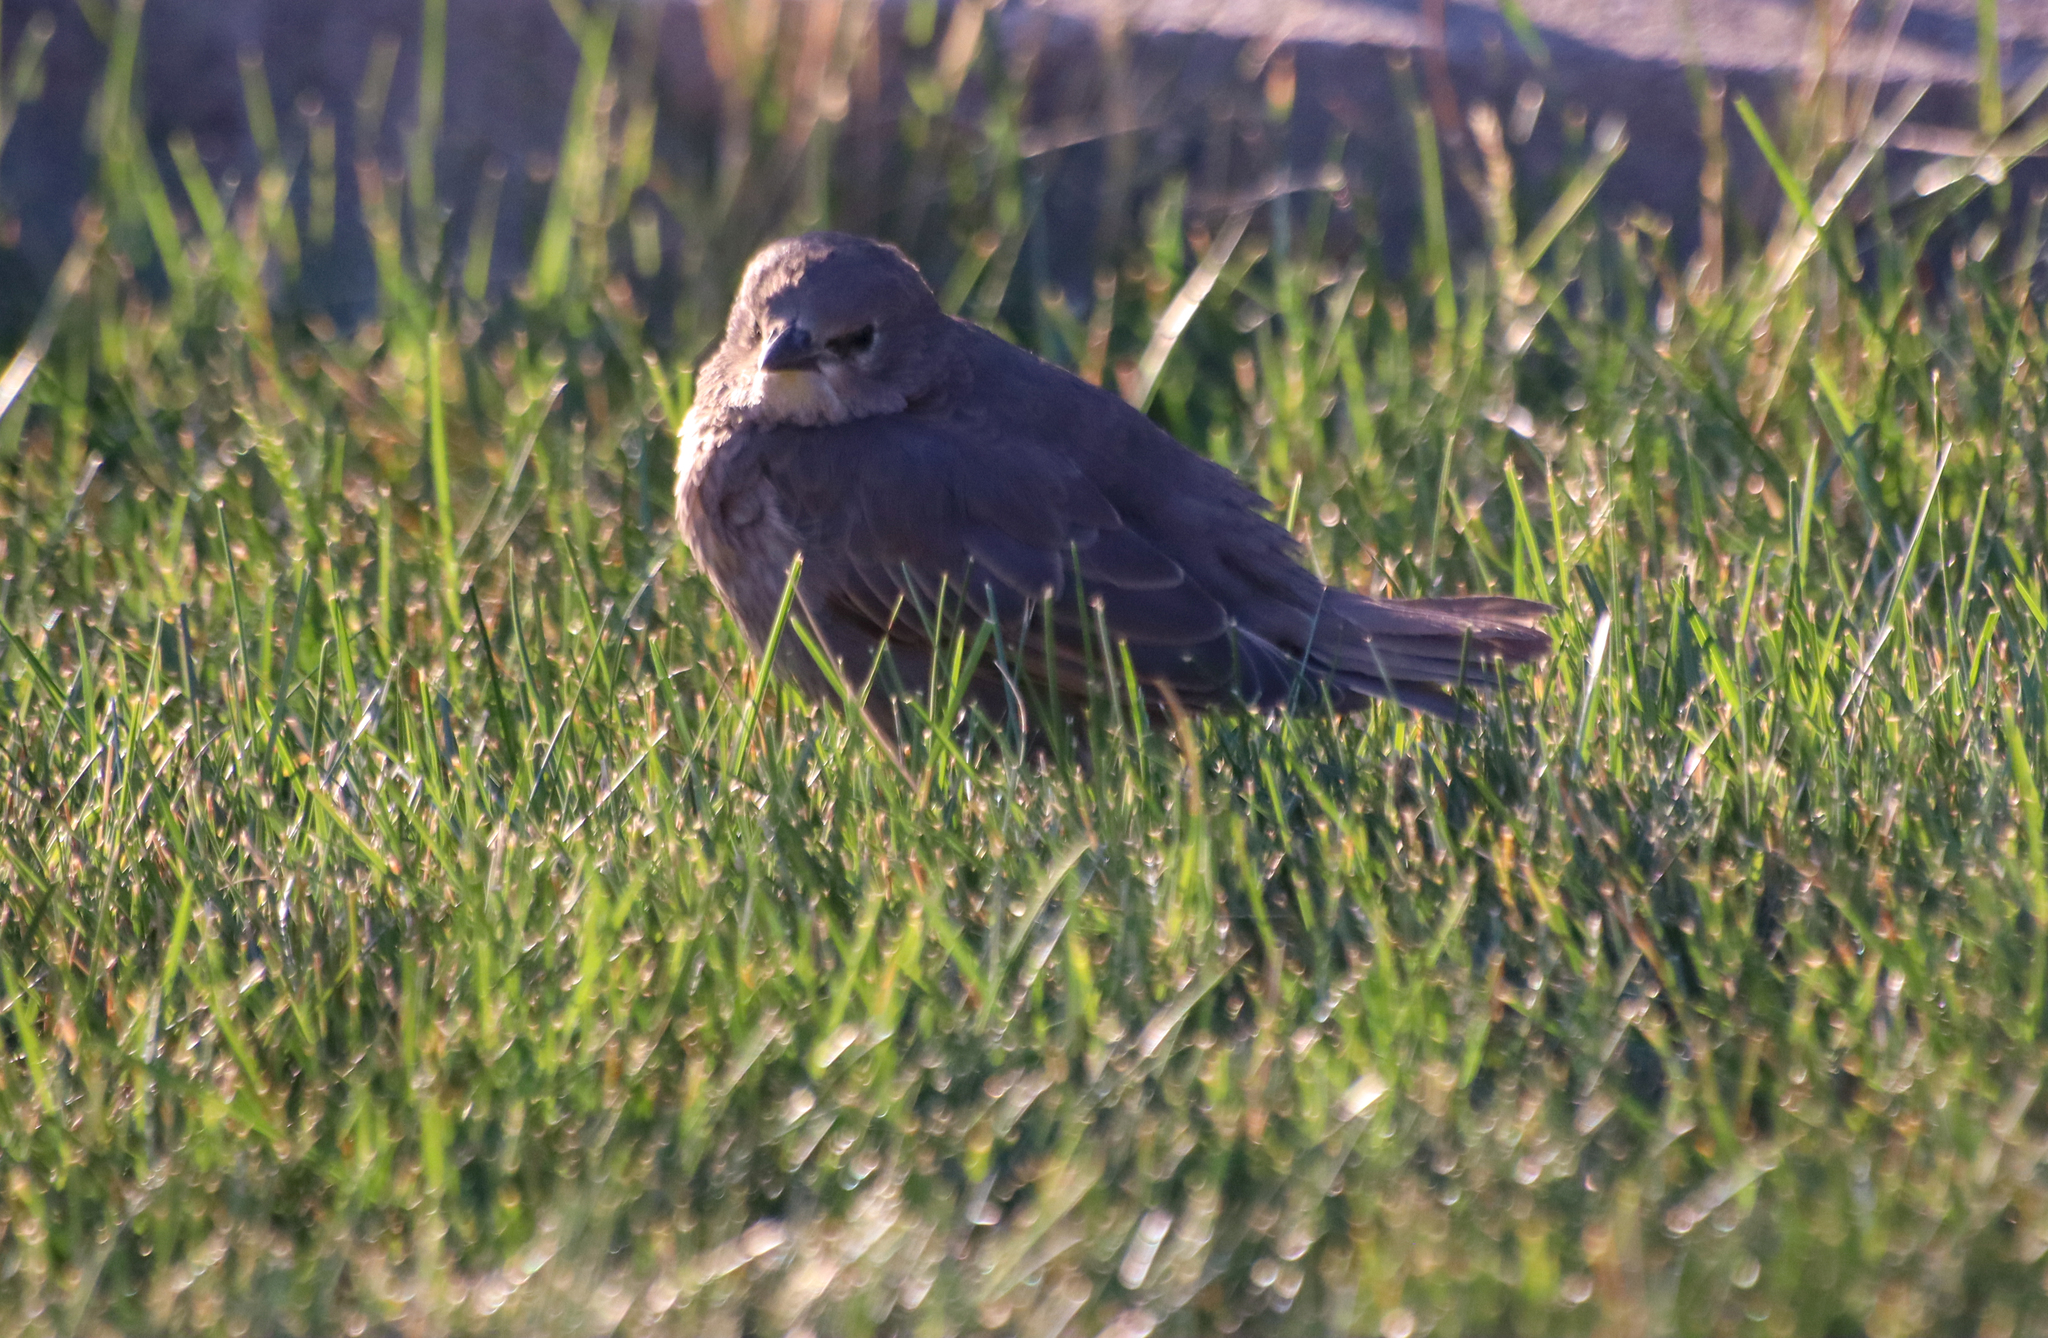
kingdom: Animalia
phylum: Chordata
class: Aves
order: Passeriformes
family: Sturnidae
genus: Sturnus
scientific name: Sturnus vulgaris
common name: Common starling
